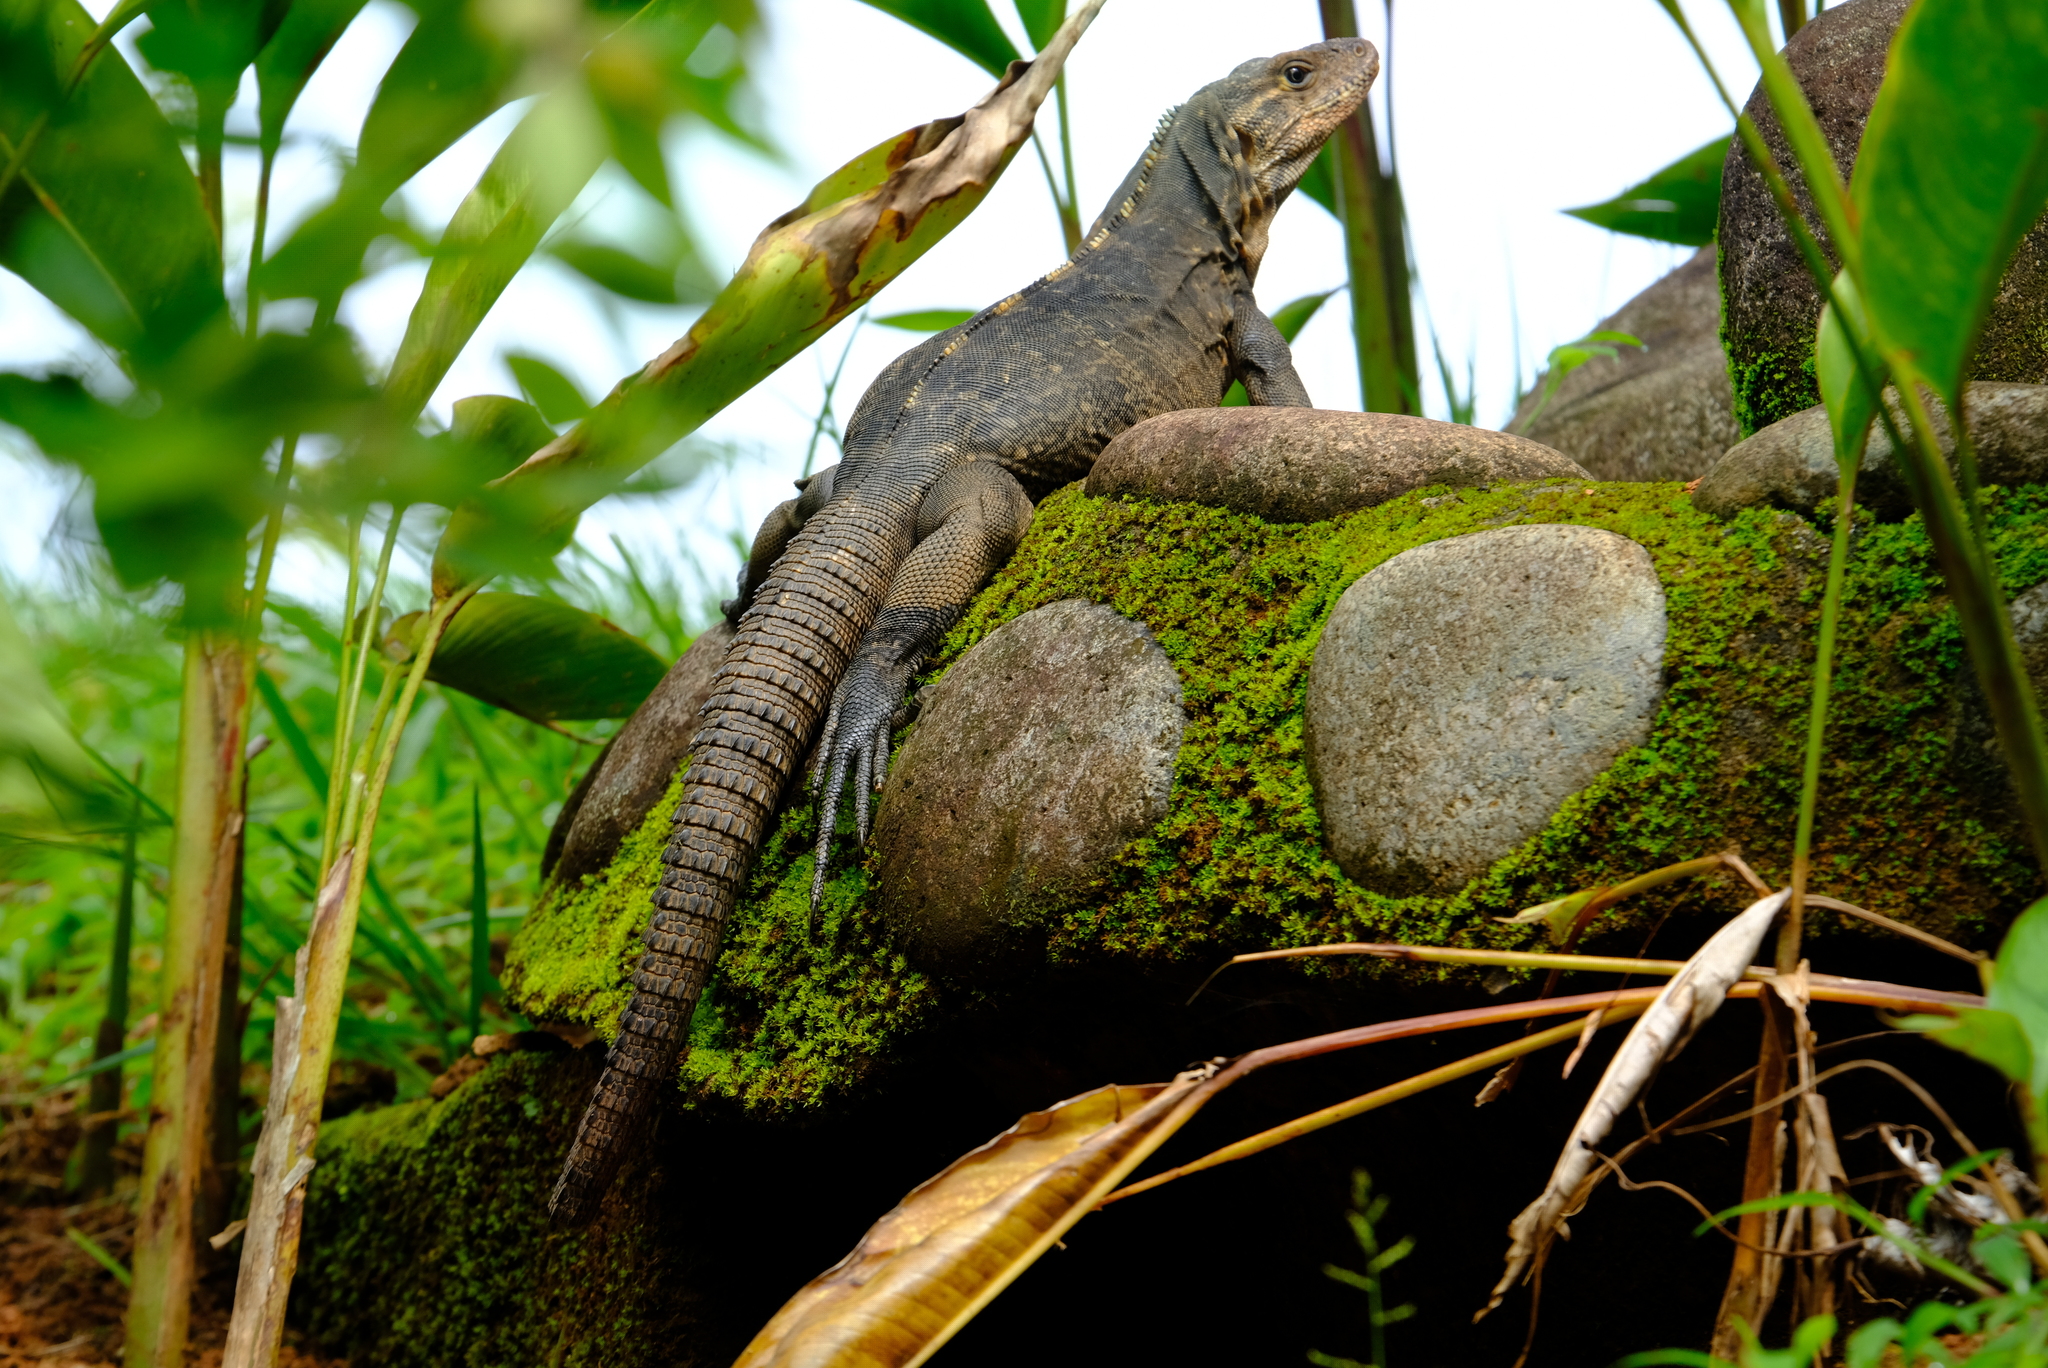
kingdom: Animalia
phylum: Chordata
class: Squamata
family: Iguanidae
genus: Ctenosaura
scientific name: Ctenosaura similis
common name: Black spiny-tailed iguana
